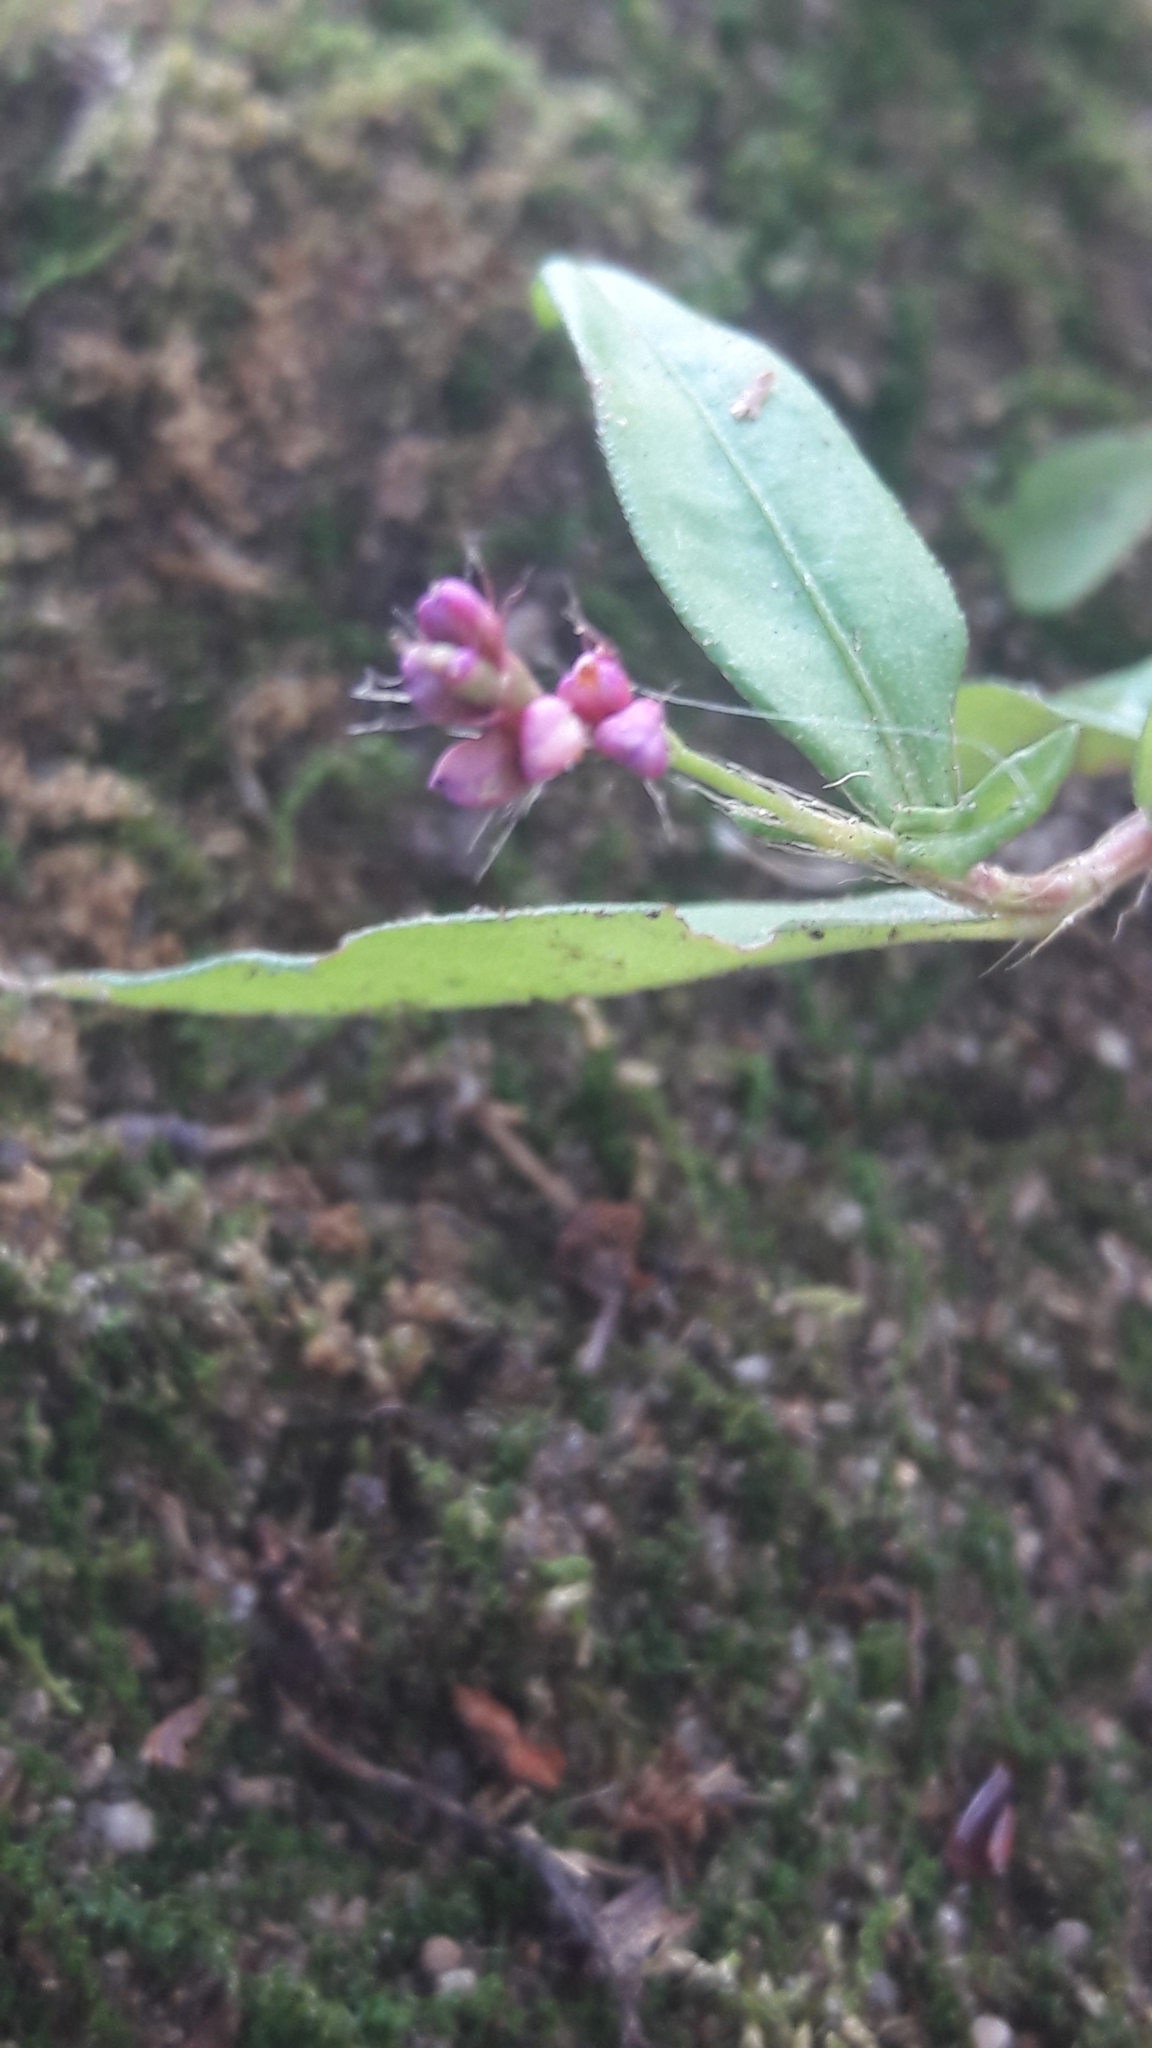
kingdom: Plantae
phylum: Tracheophyta
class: Magnoliopsida
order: Caryophyllales
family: Polygonaceae
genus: Persicaria
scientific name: Persicaria longiseta
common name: Bristly lady's-thumb
